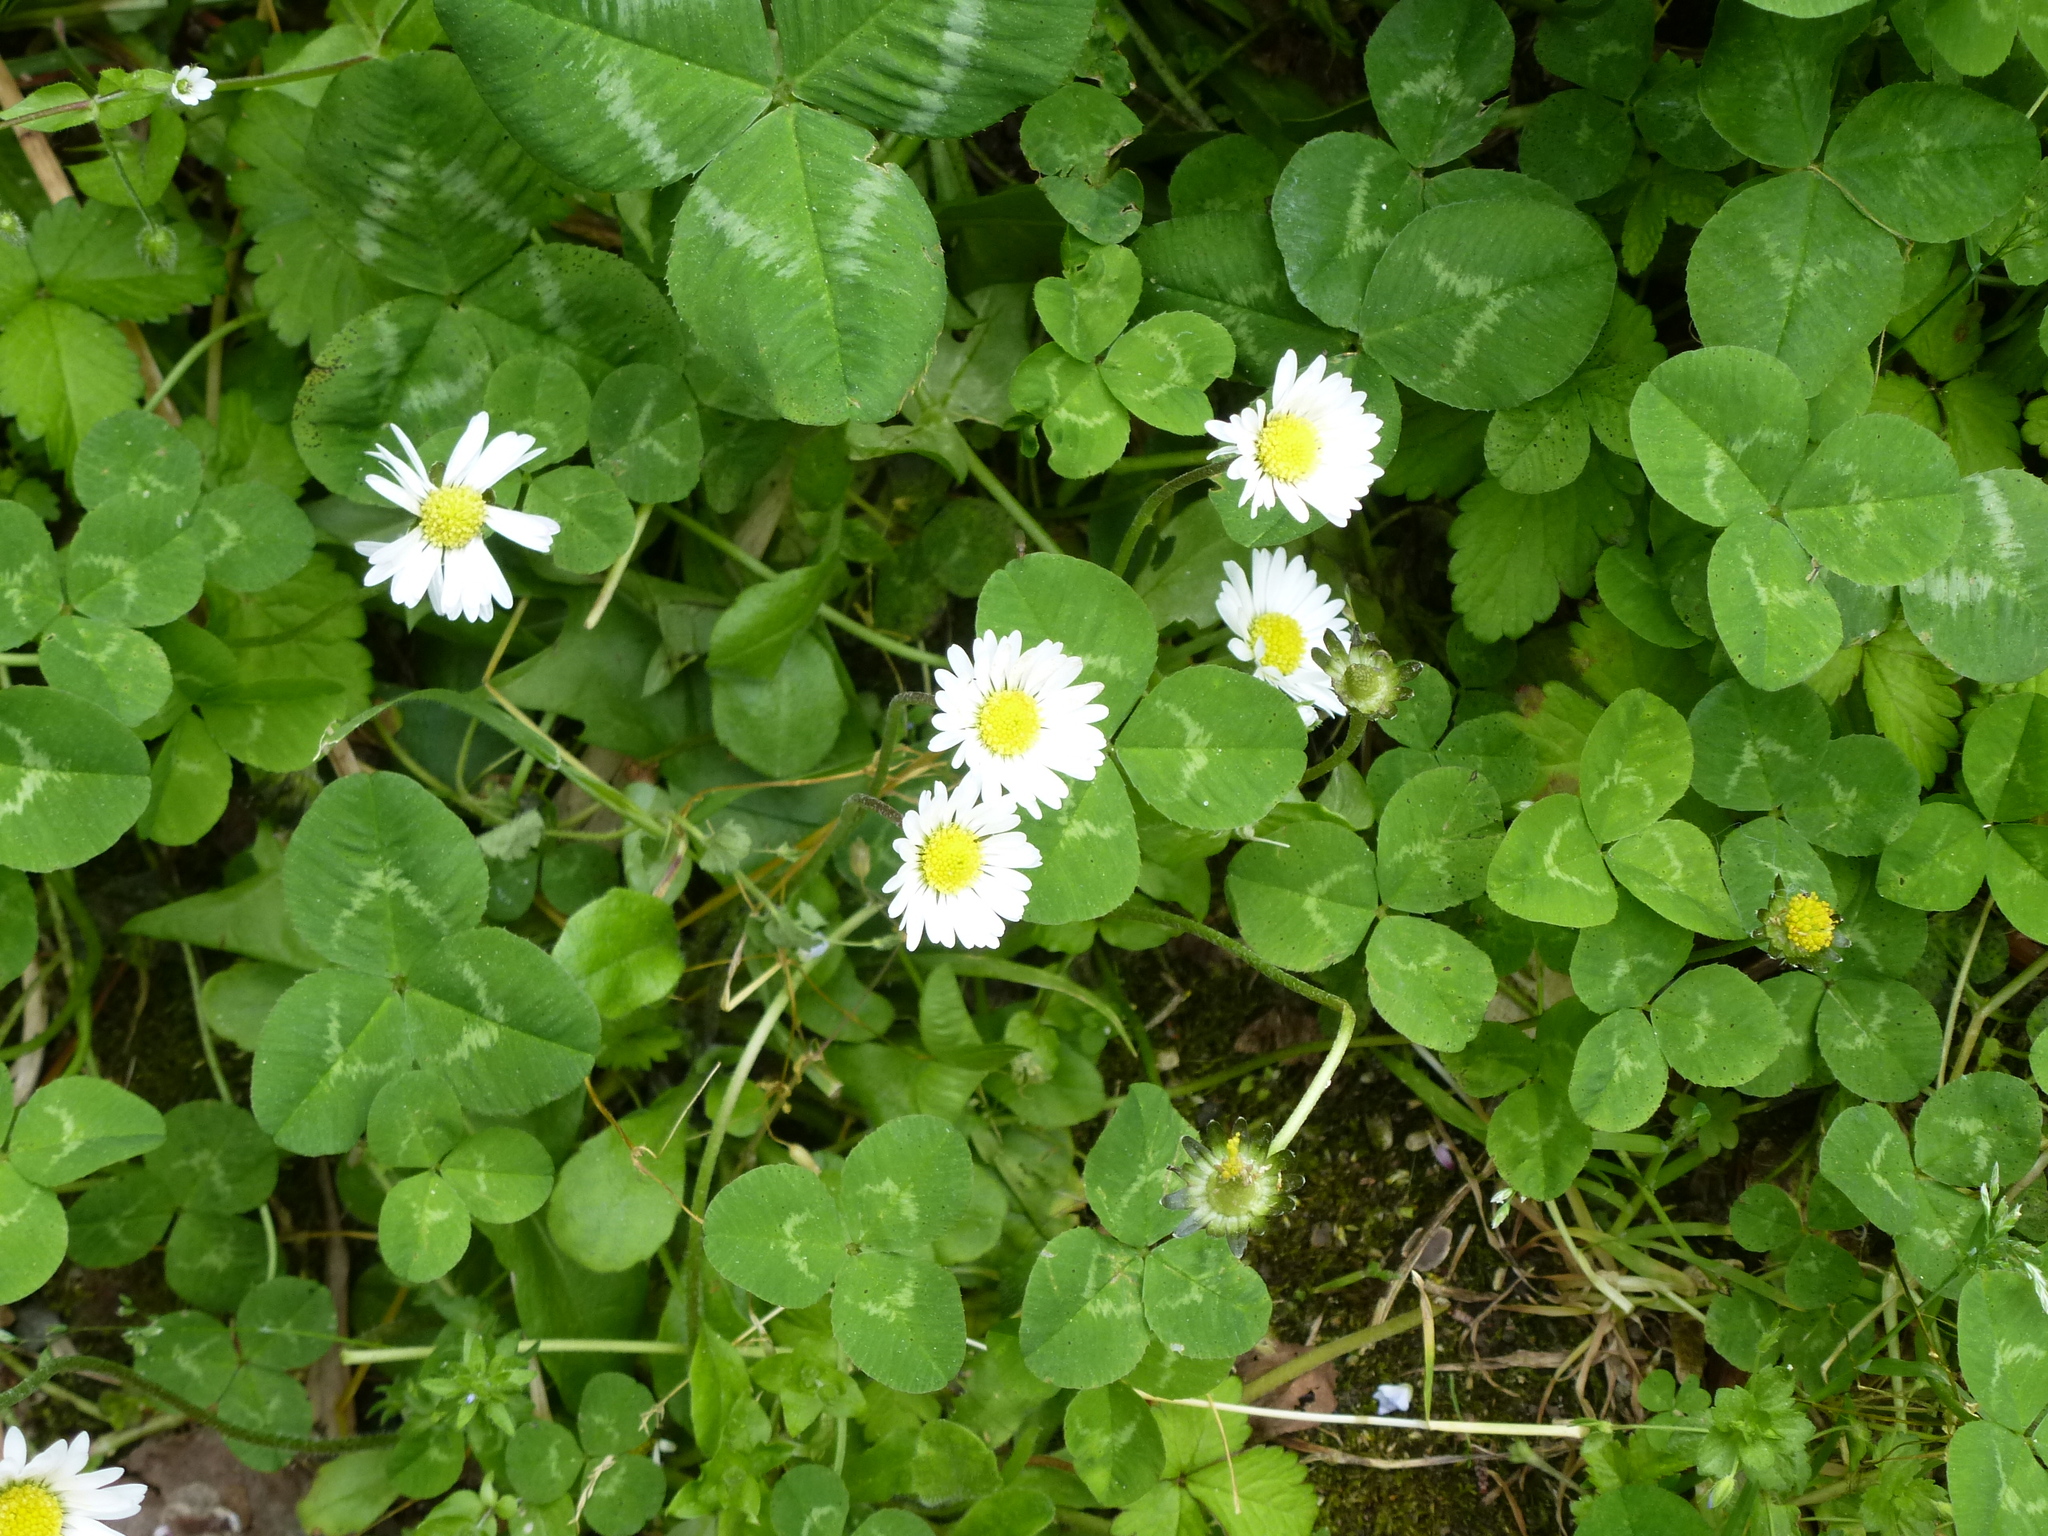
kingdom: Plantae
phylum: Tracheophyta
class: Magnoliopsida
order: Asterales
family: Asteraceae
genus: Bellis
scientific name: Bellis perennis
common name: Lawndaisy
